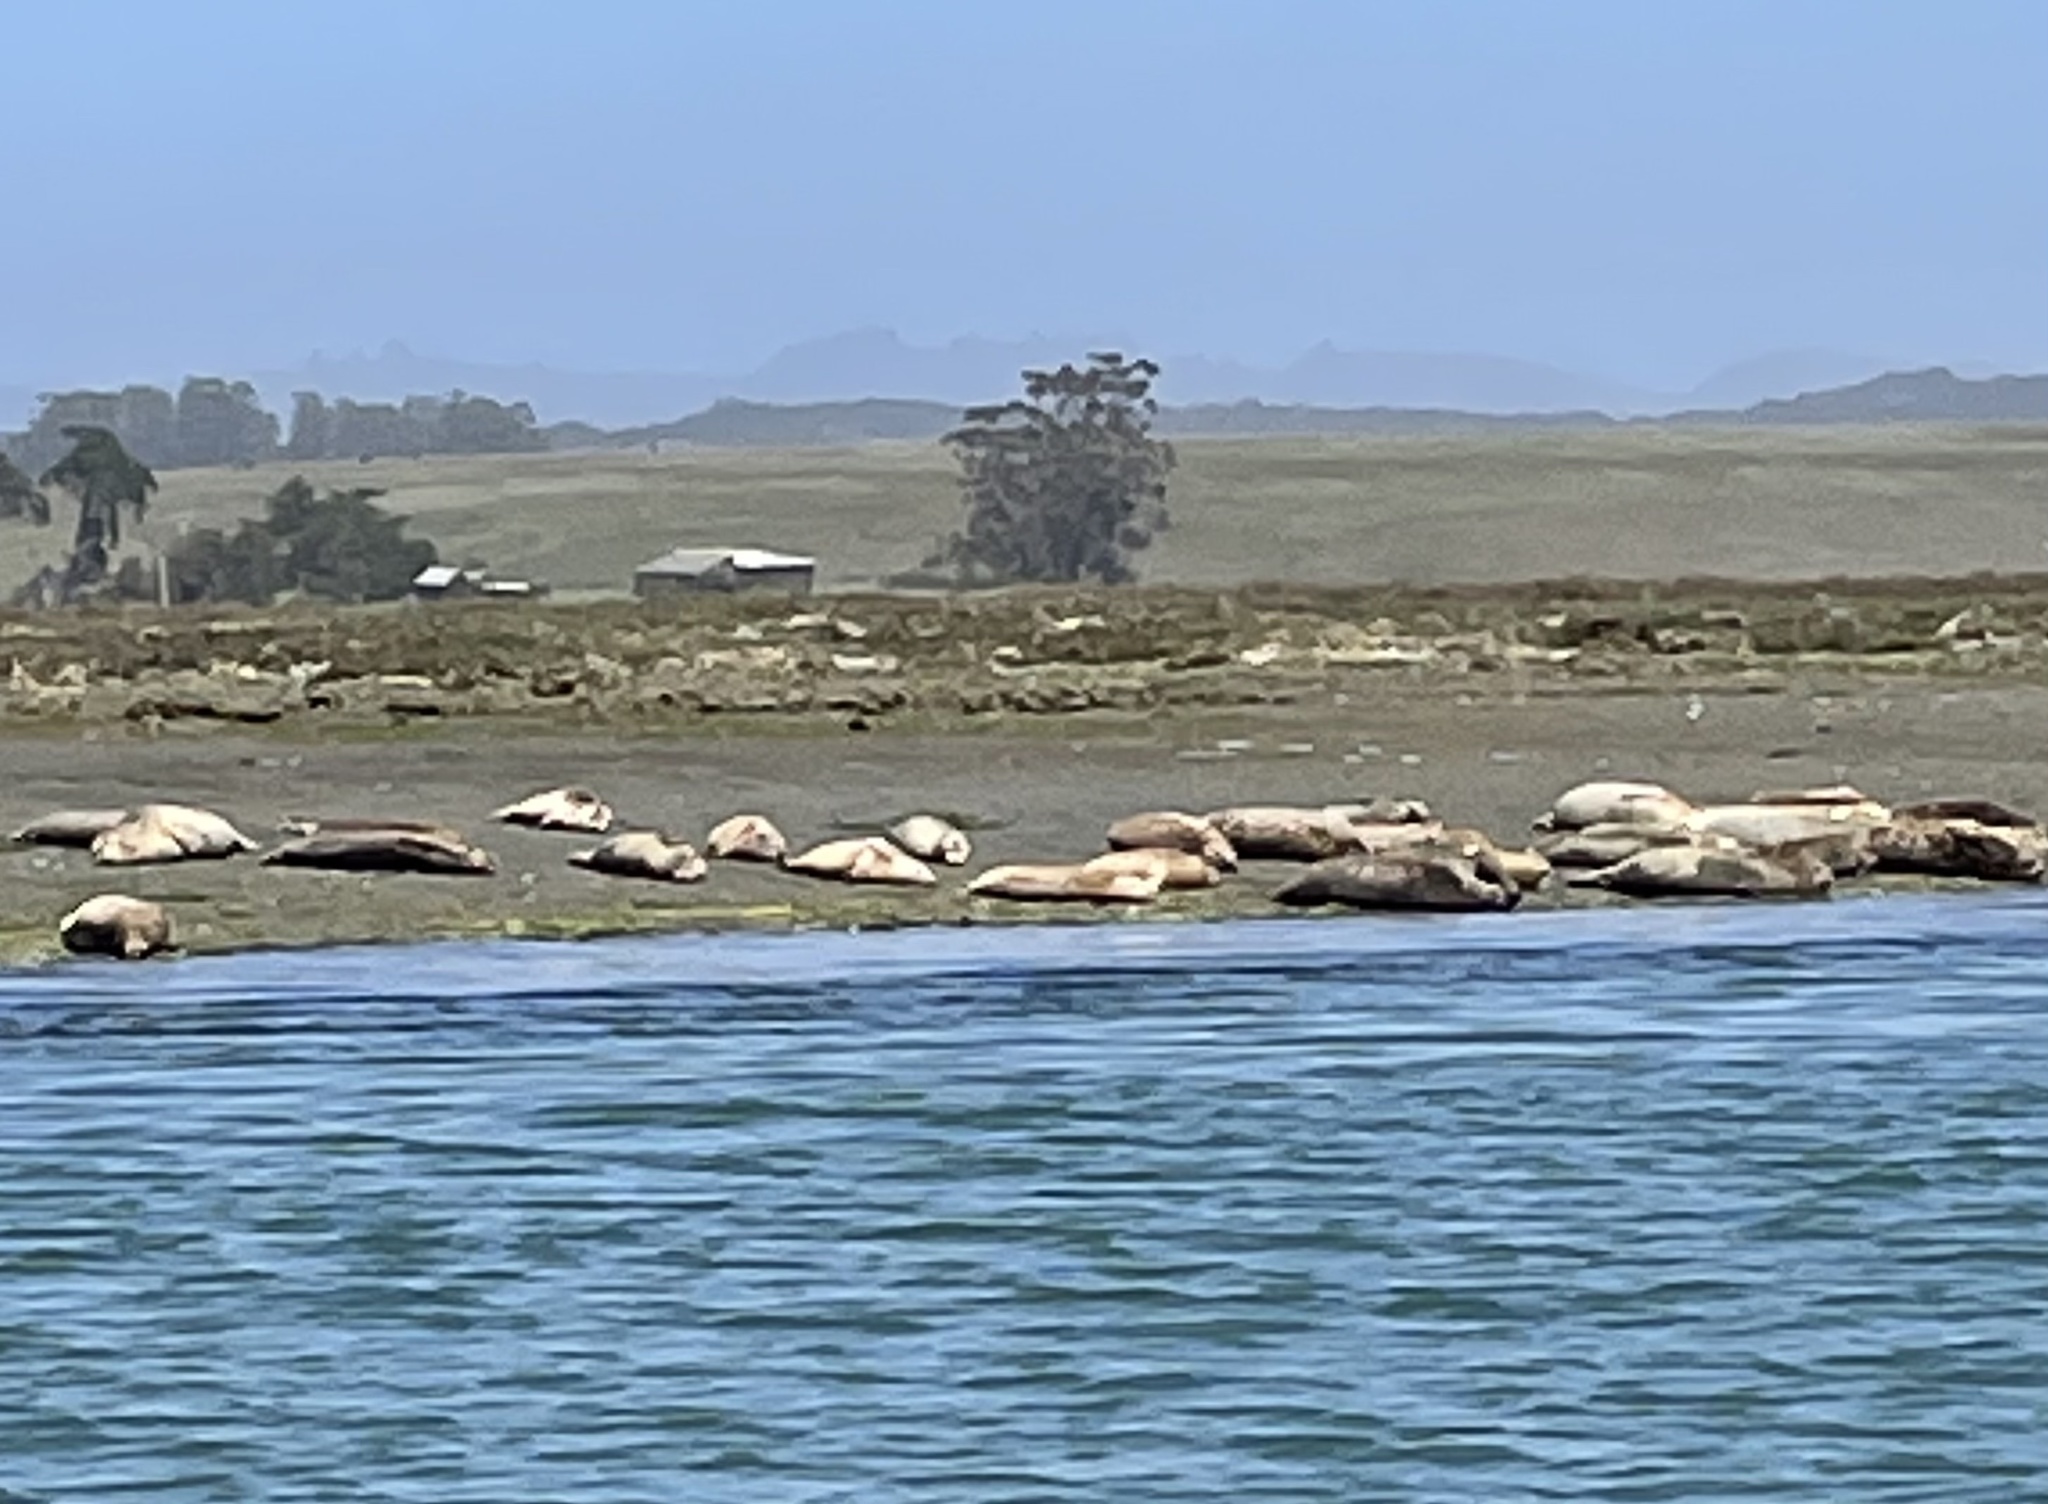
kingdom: Animalia
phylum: Chordata
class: Mammalia
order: Carnivora
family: Phocidae
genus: Phoca
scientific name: Phoca vitulina
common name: Harbor seal
